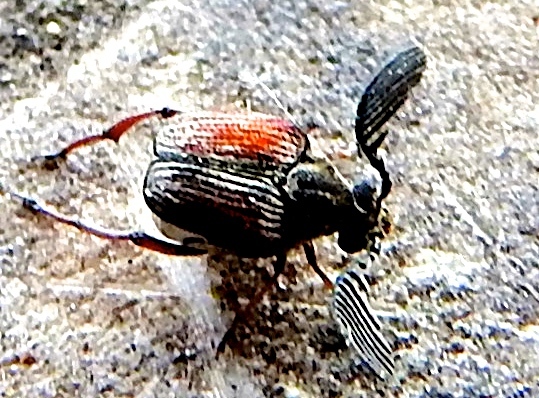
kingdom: Animalia
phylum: Arthropoda
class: Insecta
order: Coleoptera
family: Chrysomelidae
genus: Megacerus
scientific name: Megacerus
